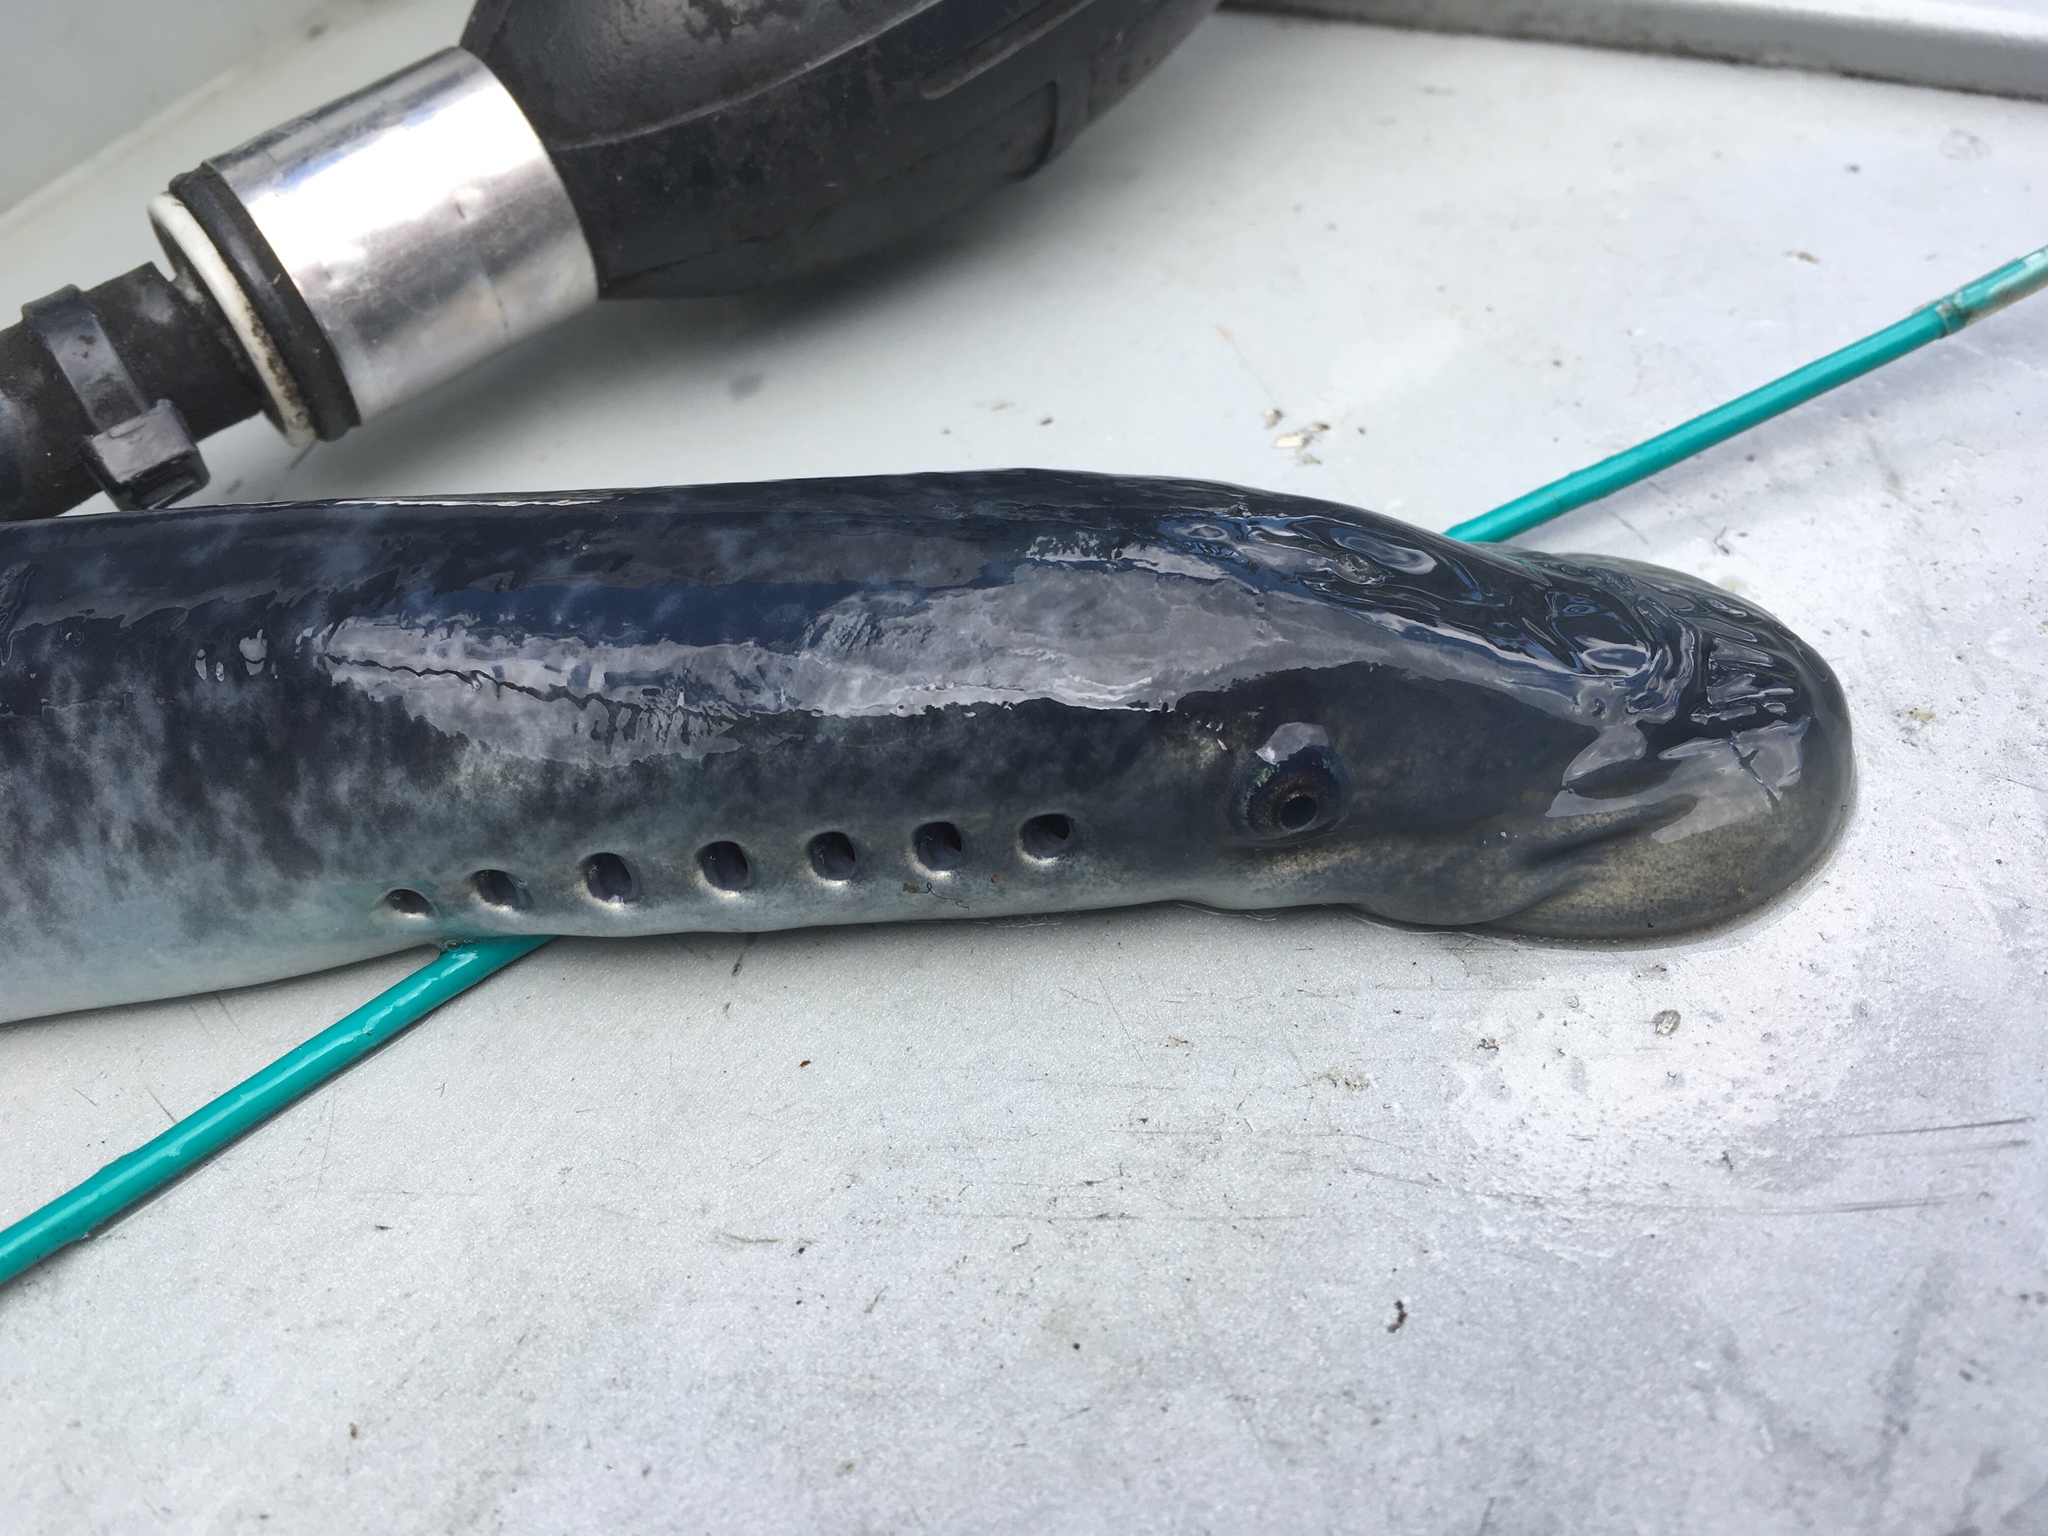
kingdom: Animalia
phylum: Chordata
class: Petromyzonti
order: Petromyzontiformes
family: Petromyzontidae
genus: Petromyzon
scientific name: Petromyzon marinus
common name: Sea lamprey
